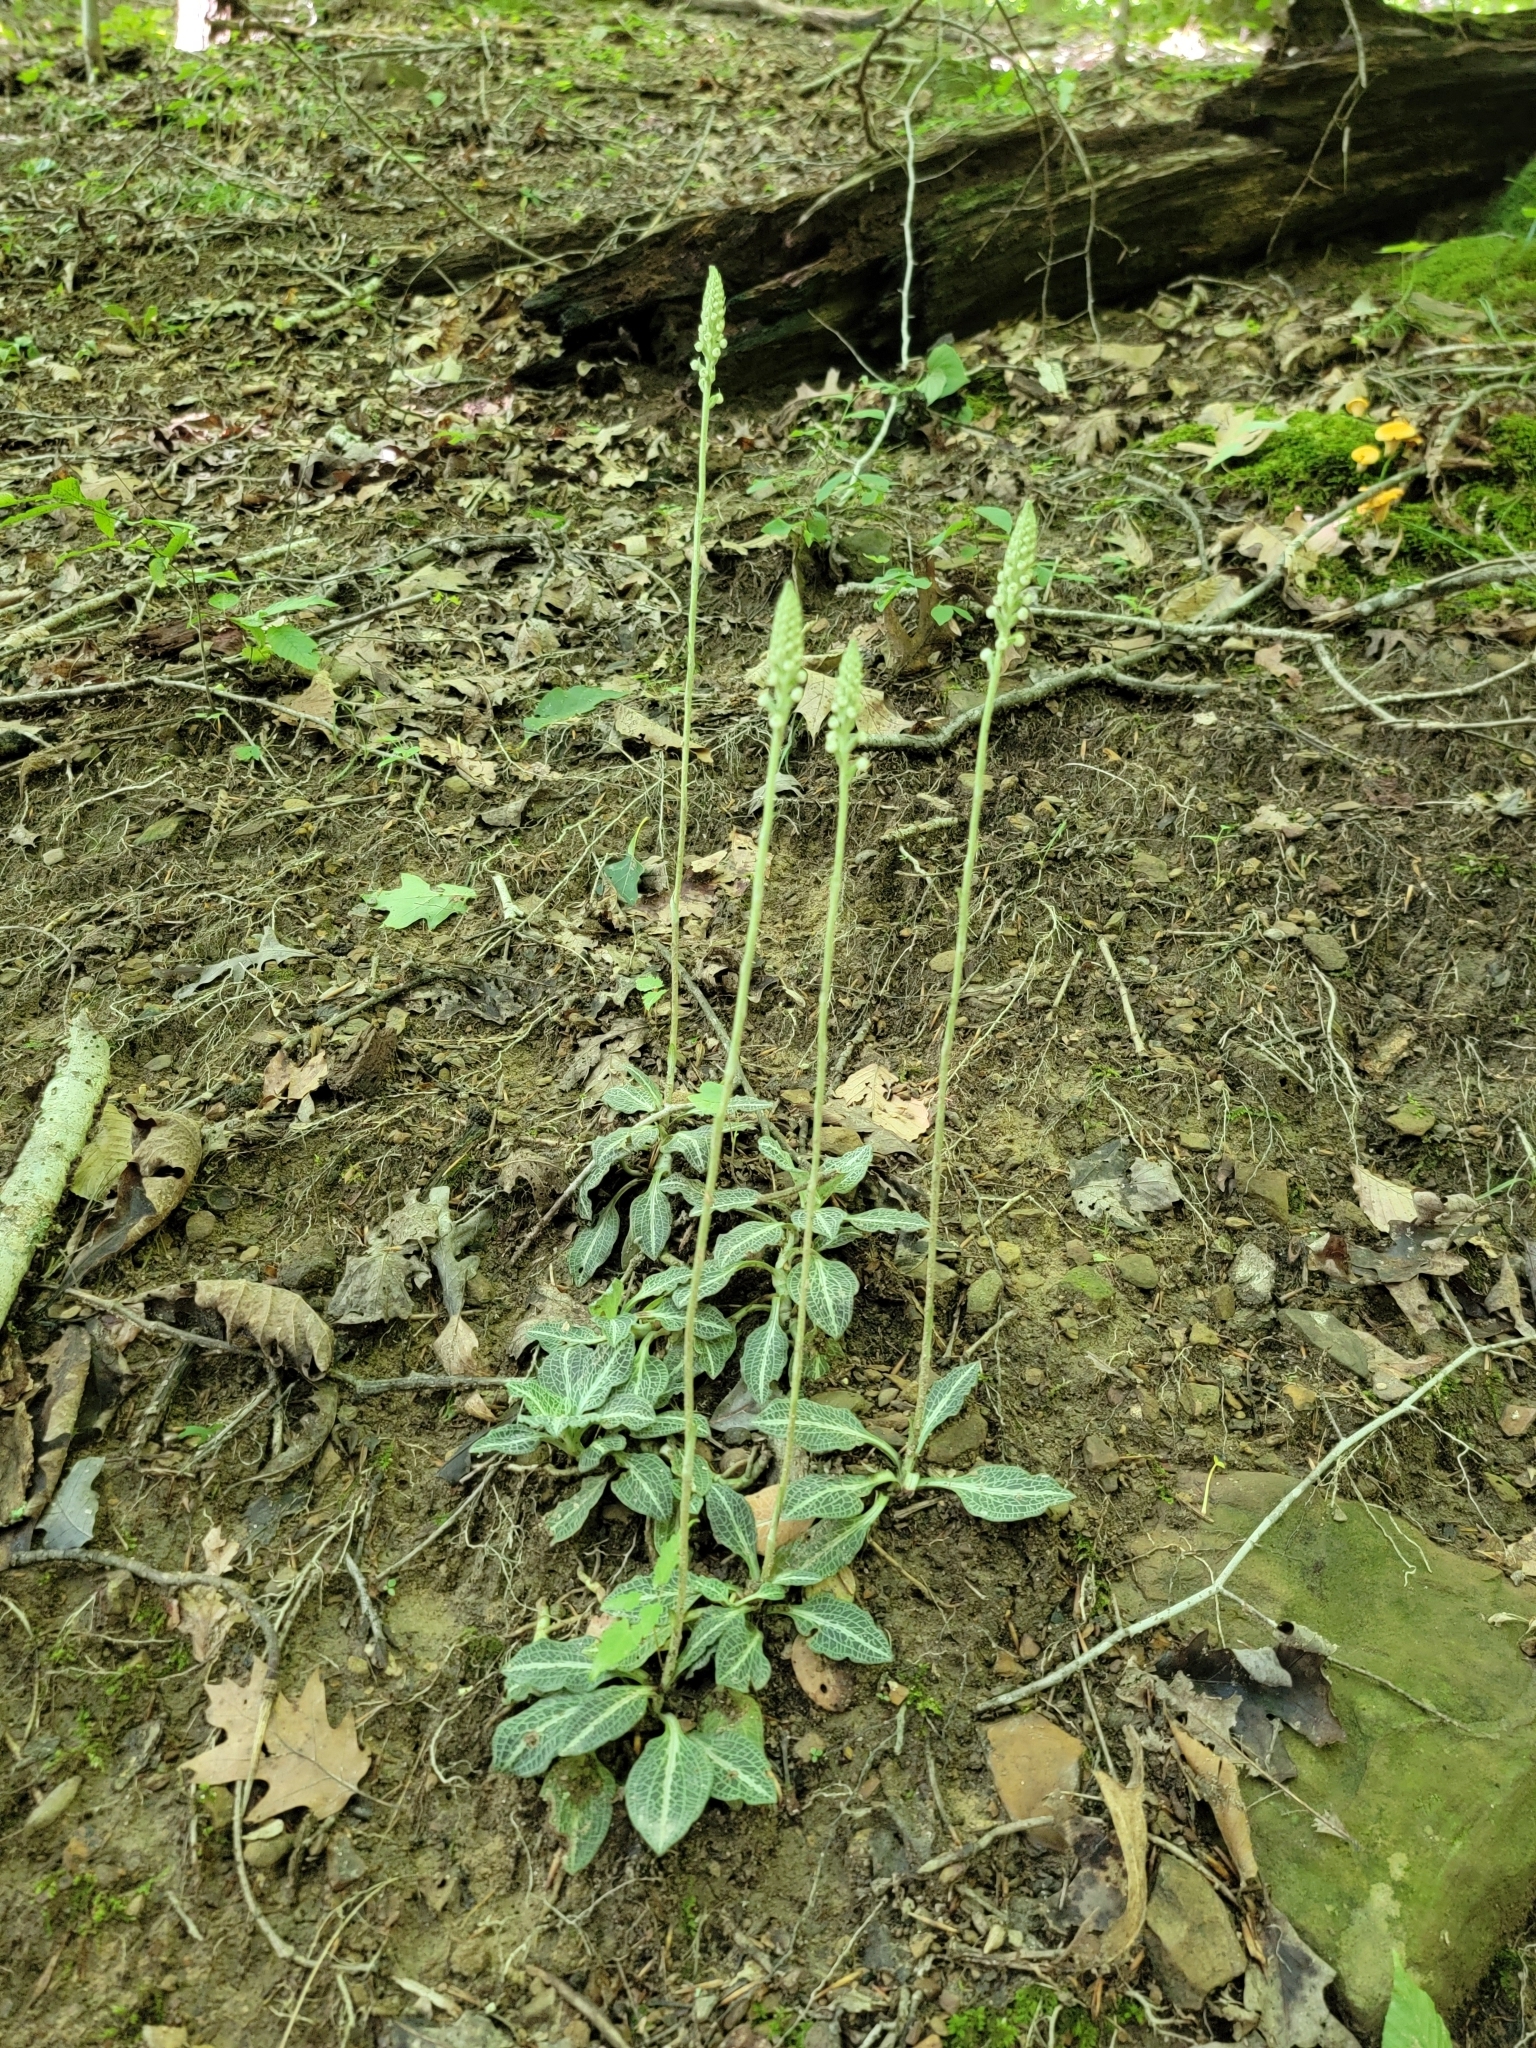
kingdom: Plantae
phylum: Tracheophyta
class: Liliopsida
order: Asparagales
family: Orchidaceae
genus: Goodyera
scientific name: Goodyera pubescens
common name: Downy rattlesnake-plantain
